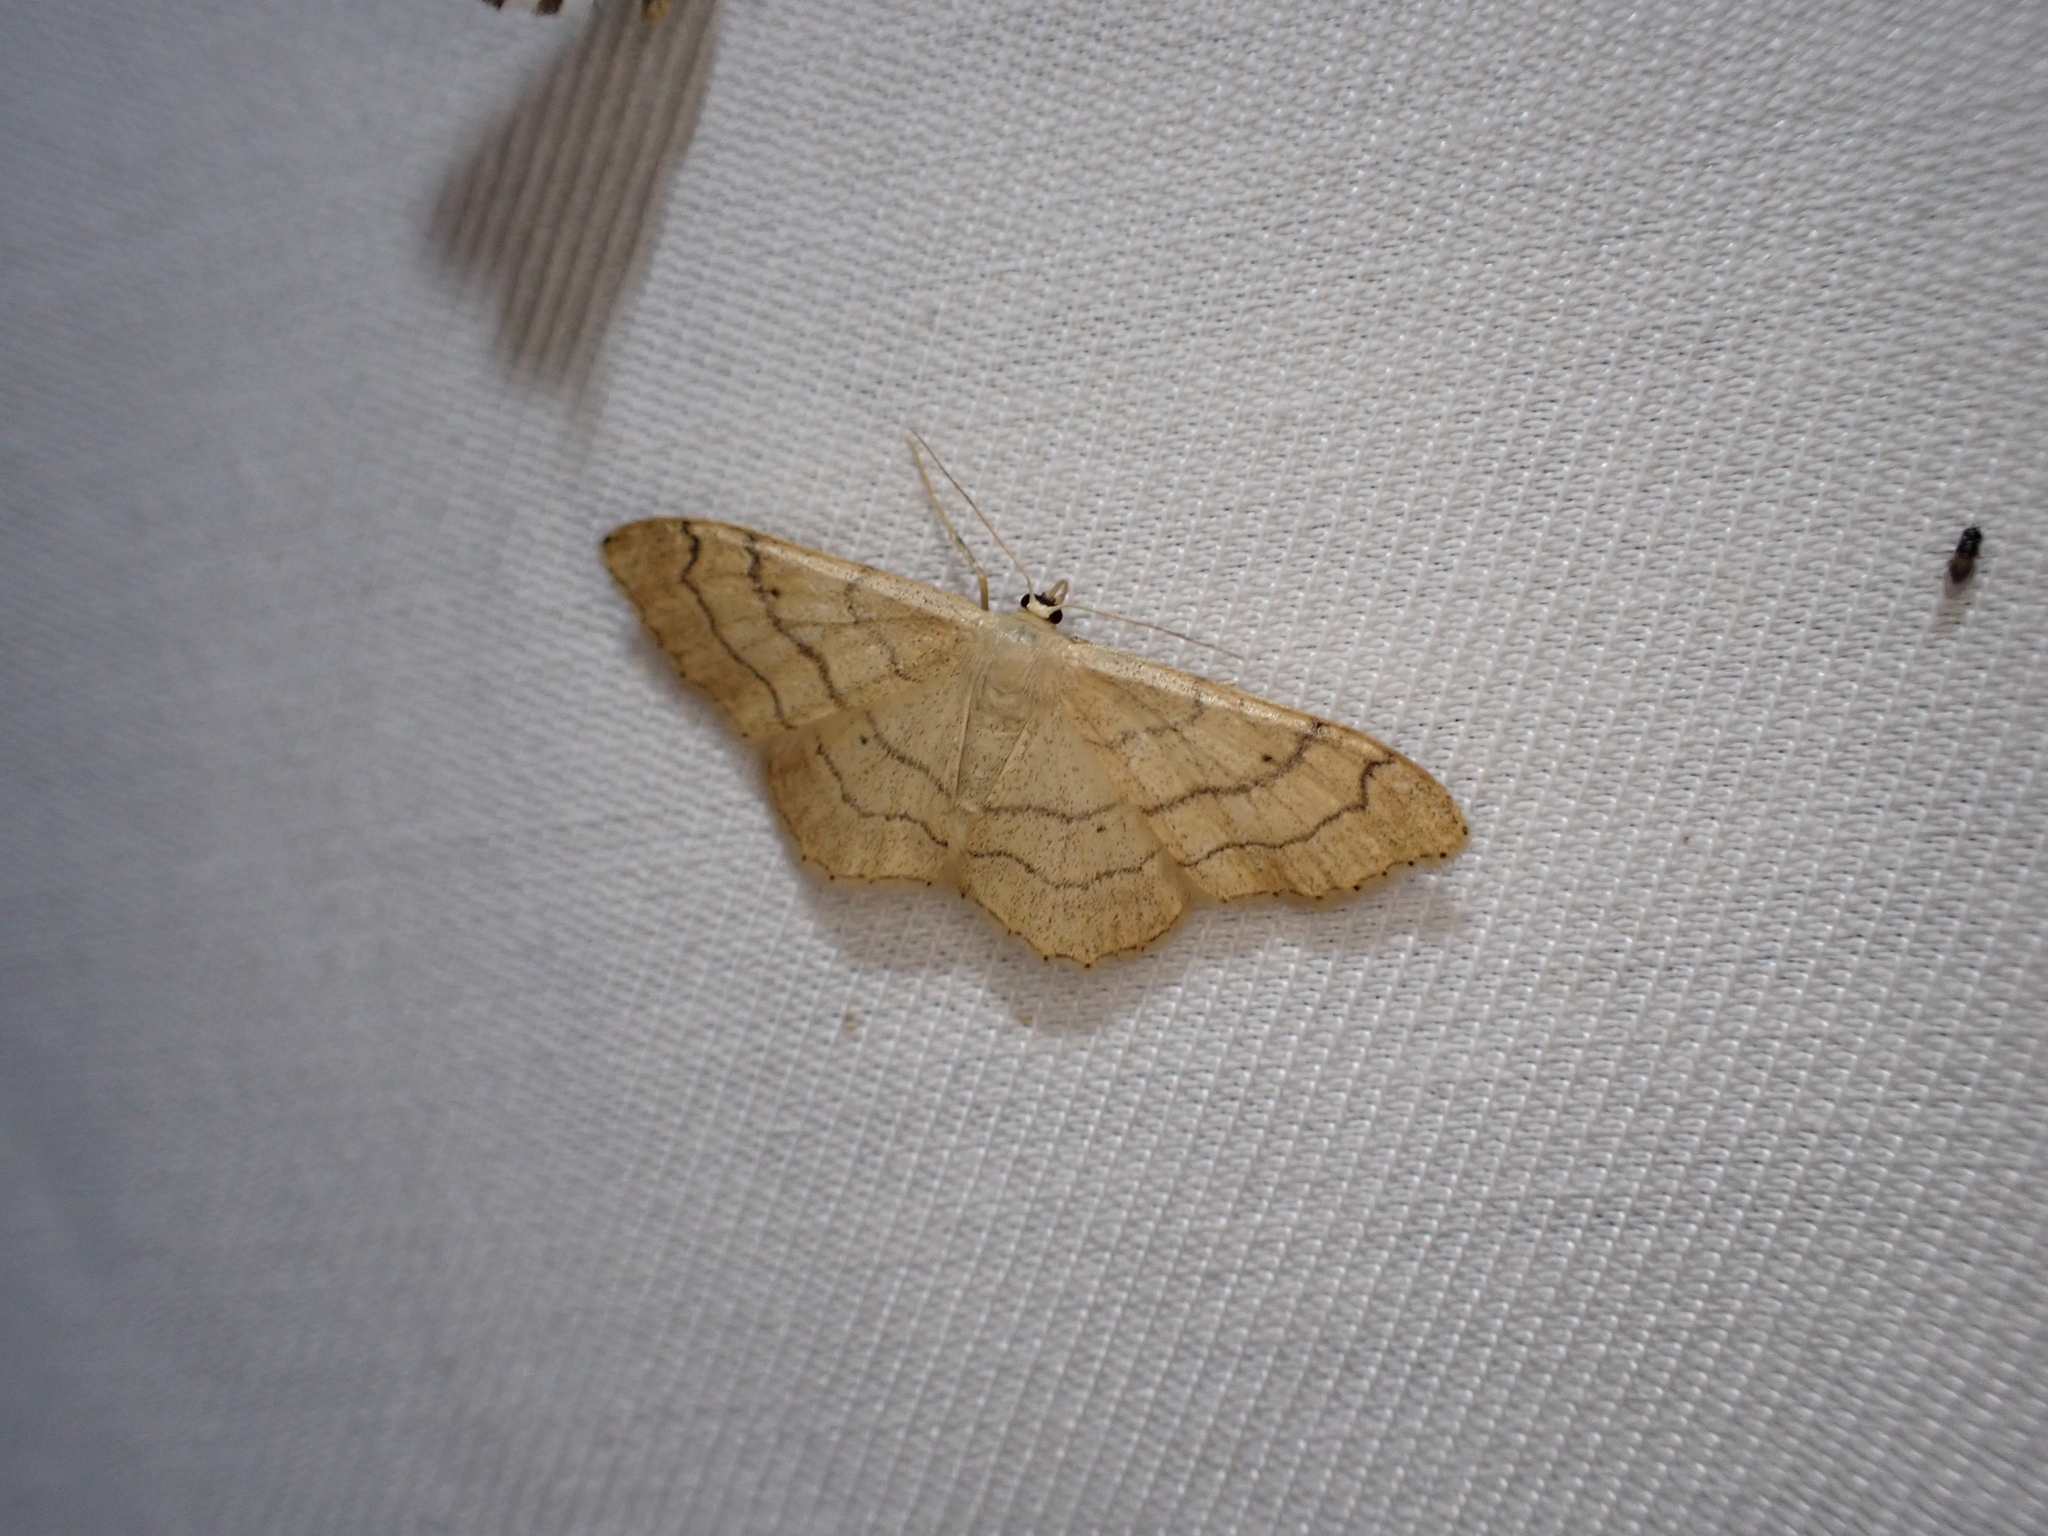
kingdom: Animalia
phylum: Arthropoda
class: Insecta
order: Lepidoptera
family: Geometridae
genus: Idaea
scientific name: Idaea aversata
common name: Riband wave
